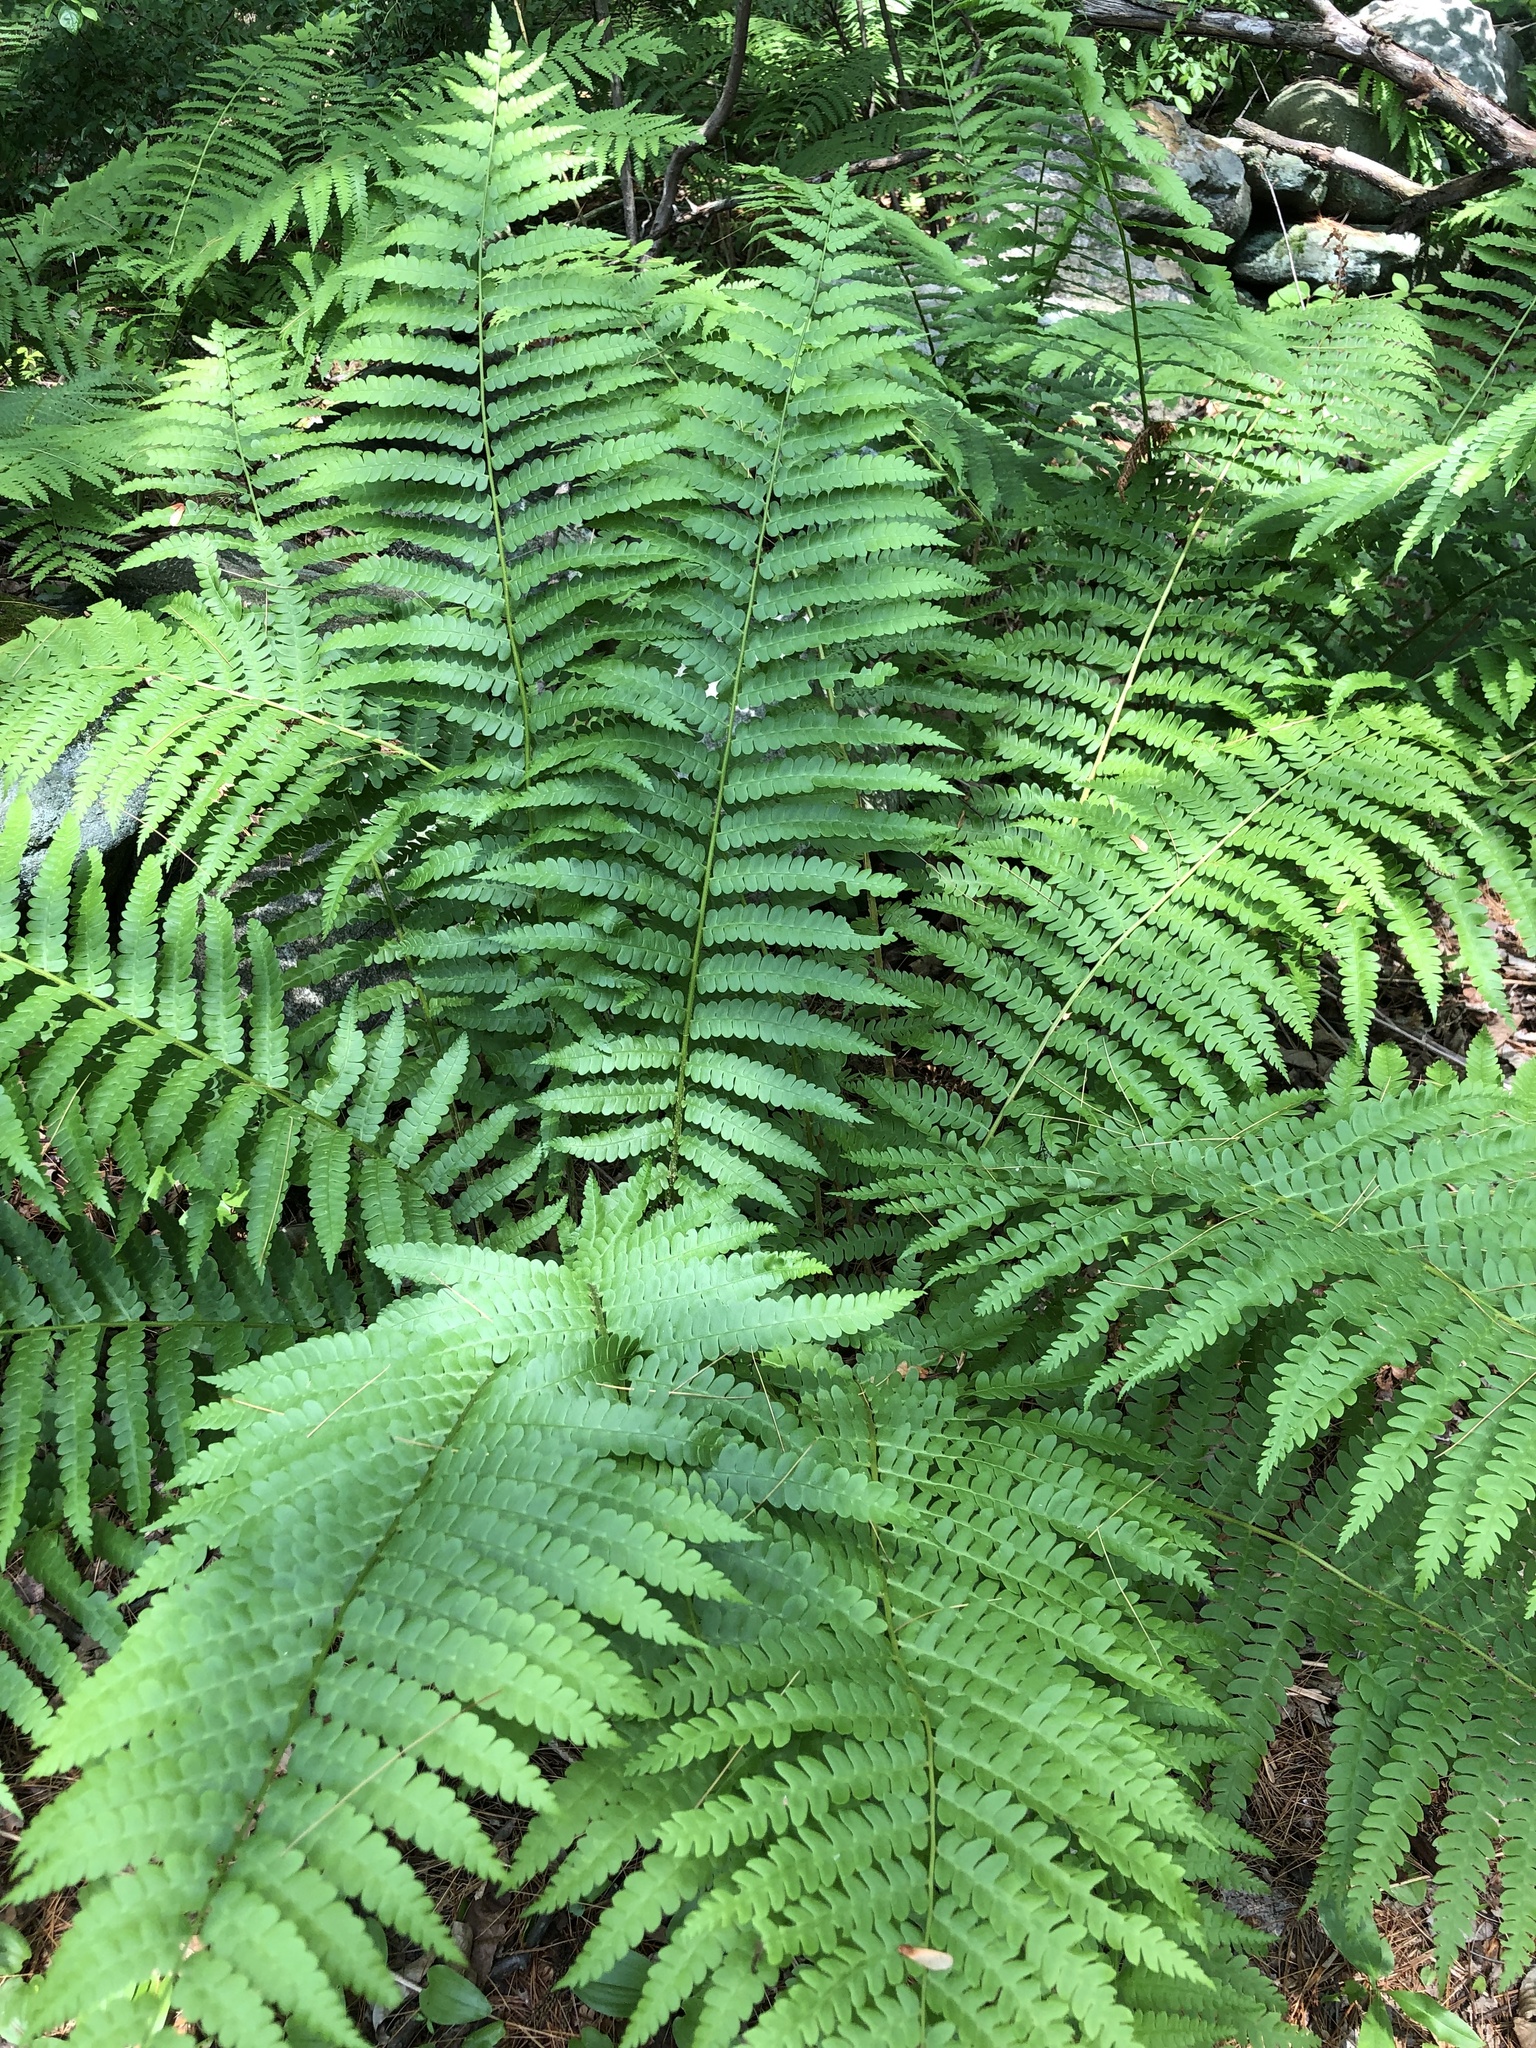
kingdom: Plantae
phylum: Tracheophyta
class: Polypodiopsida
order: Osmundales
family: Osmundaceae
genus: Osmundastrum
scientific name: Osmundastrum cinnamomeum
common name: Cinnamon fern
